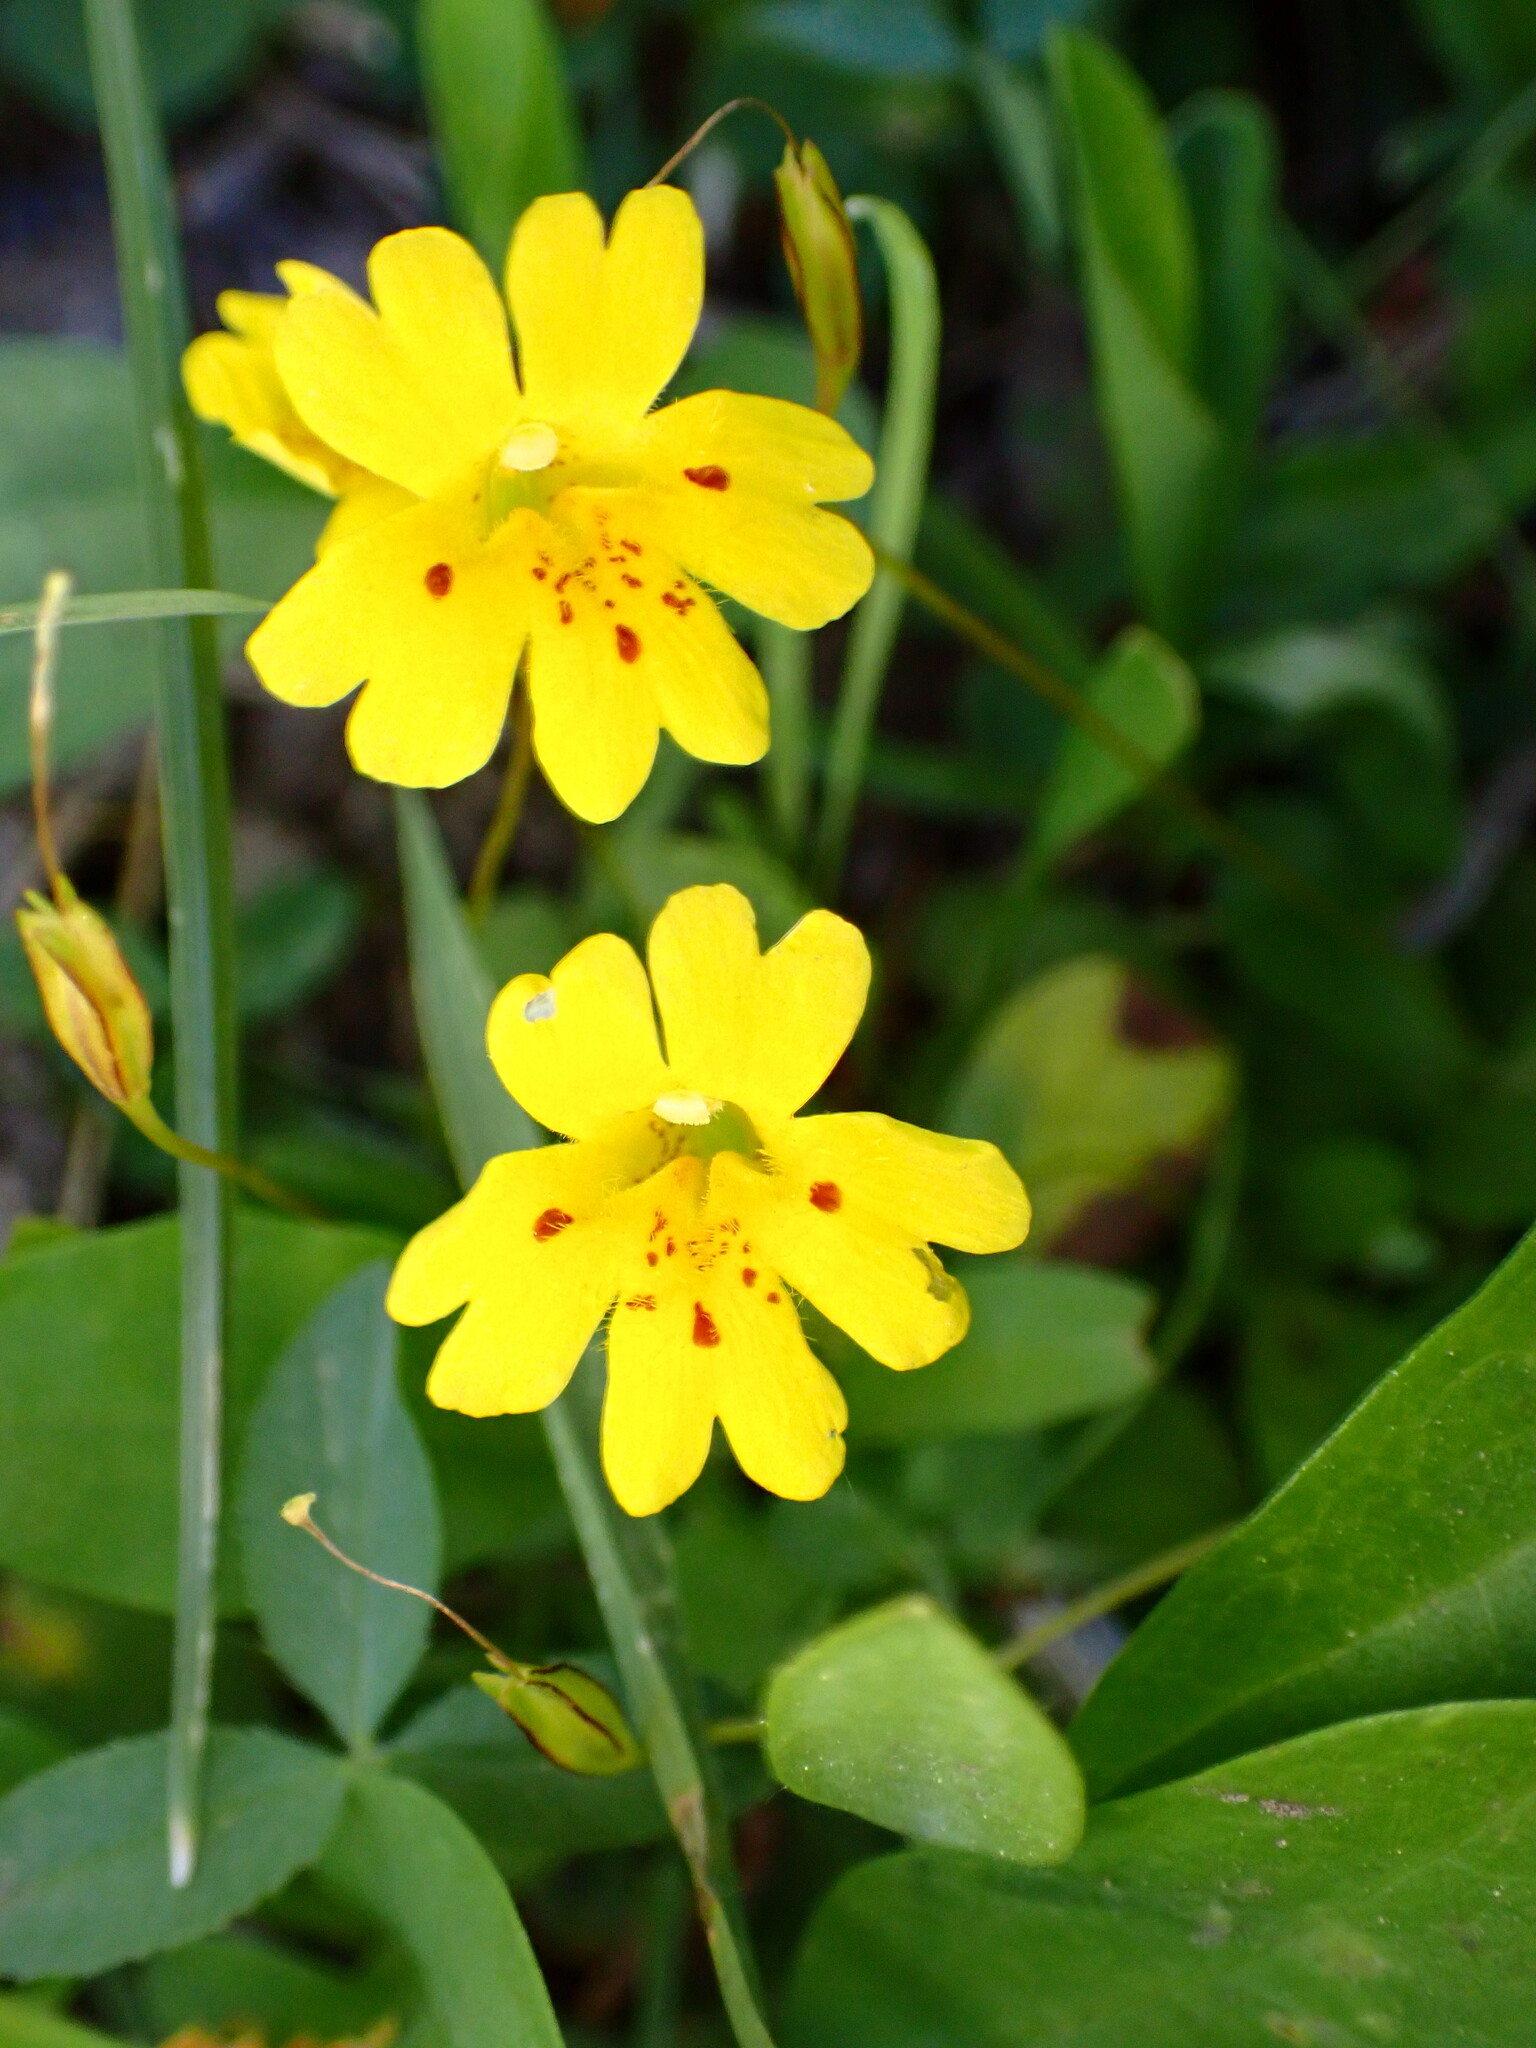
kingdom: Plantae
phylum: Tracheophyta
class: Magnoliopsida
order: Lamiales
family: Phrymaceae
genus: Erythranthe
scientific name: Erythranthe primuloides
